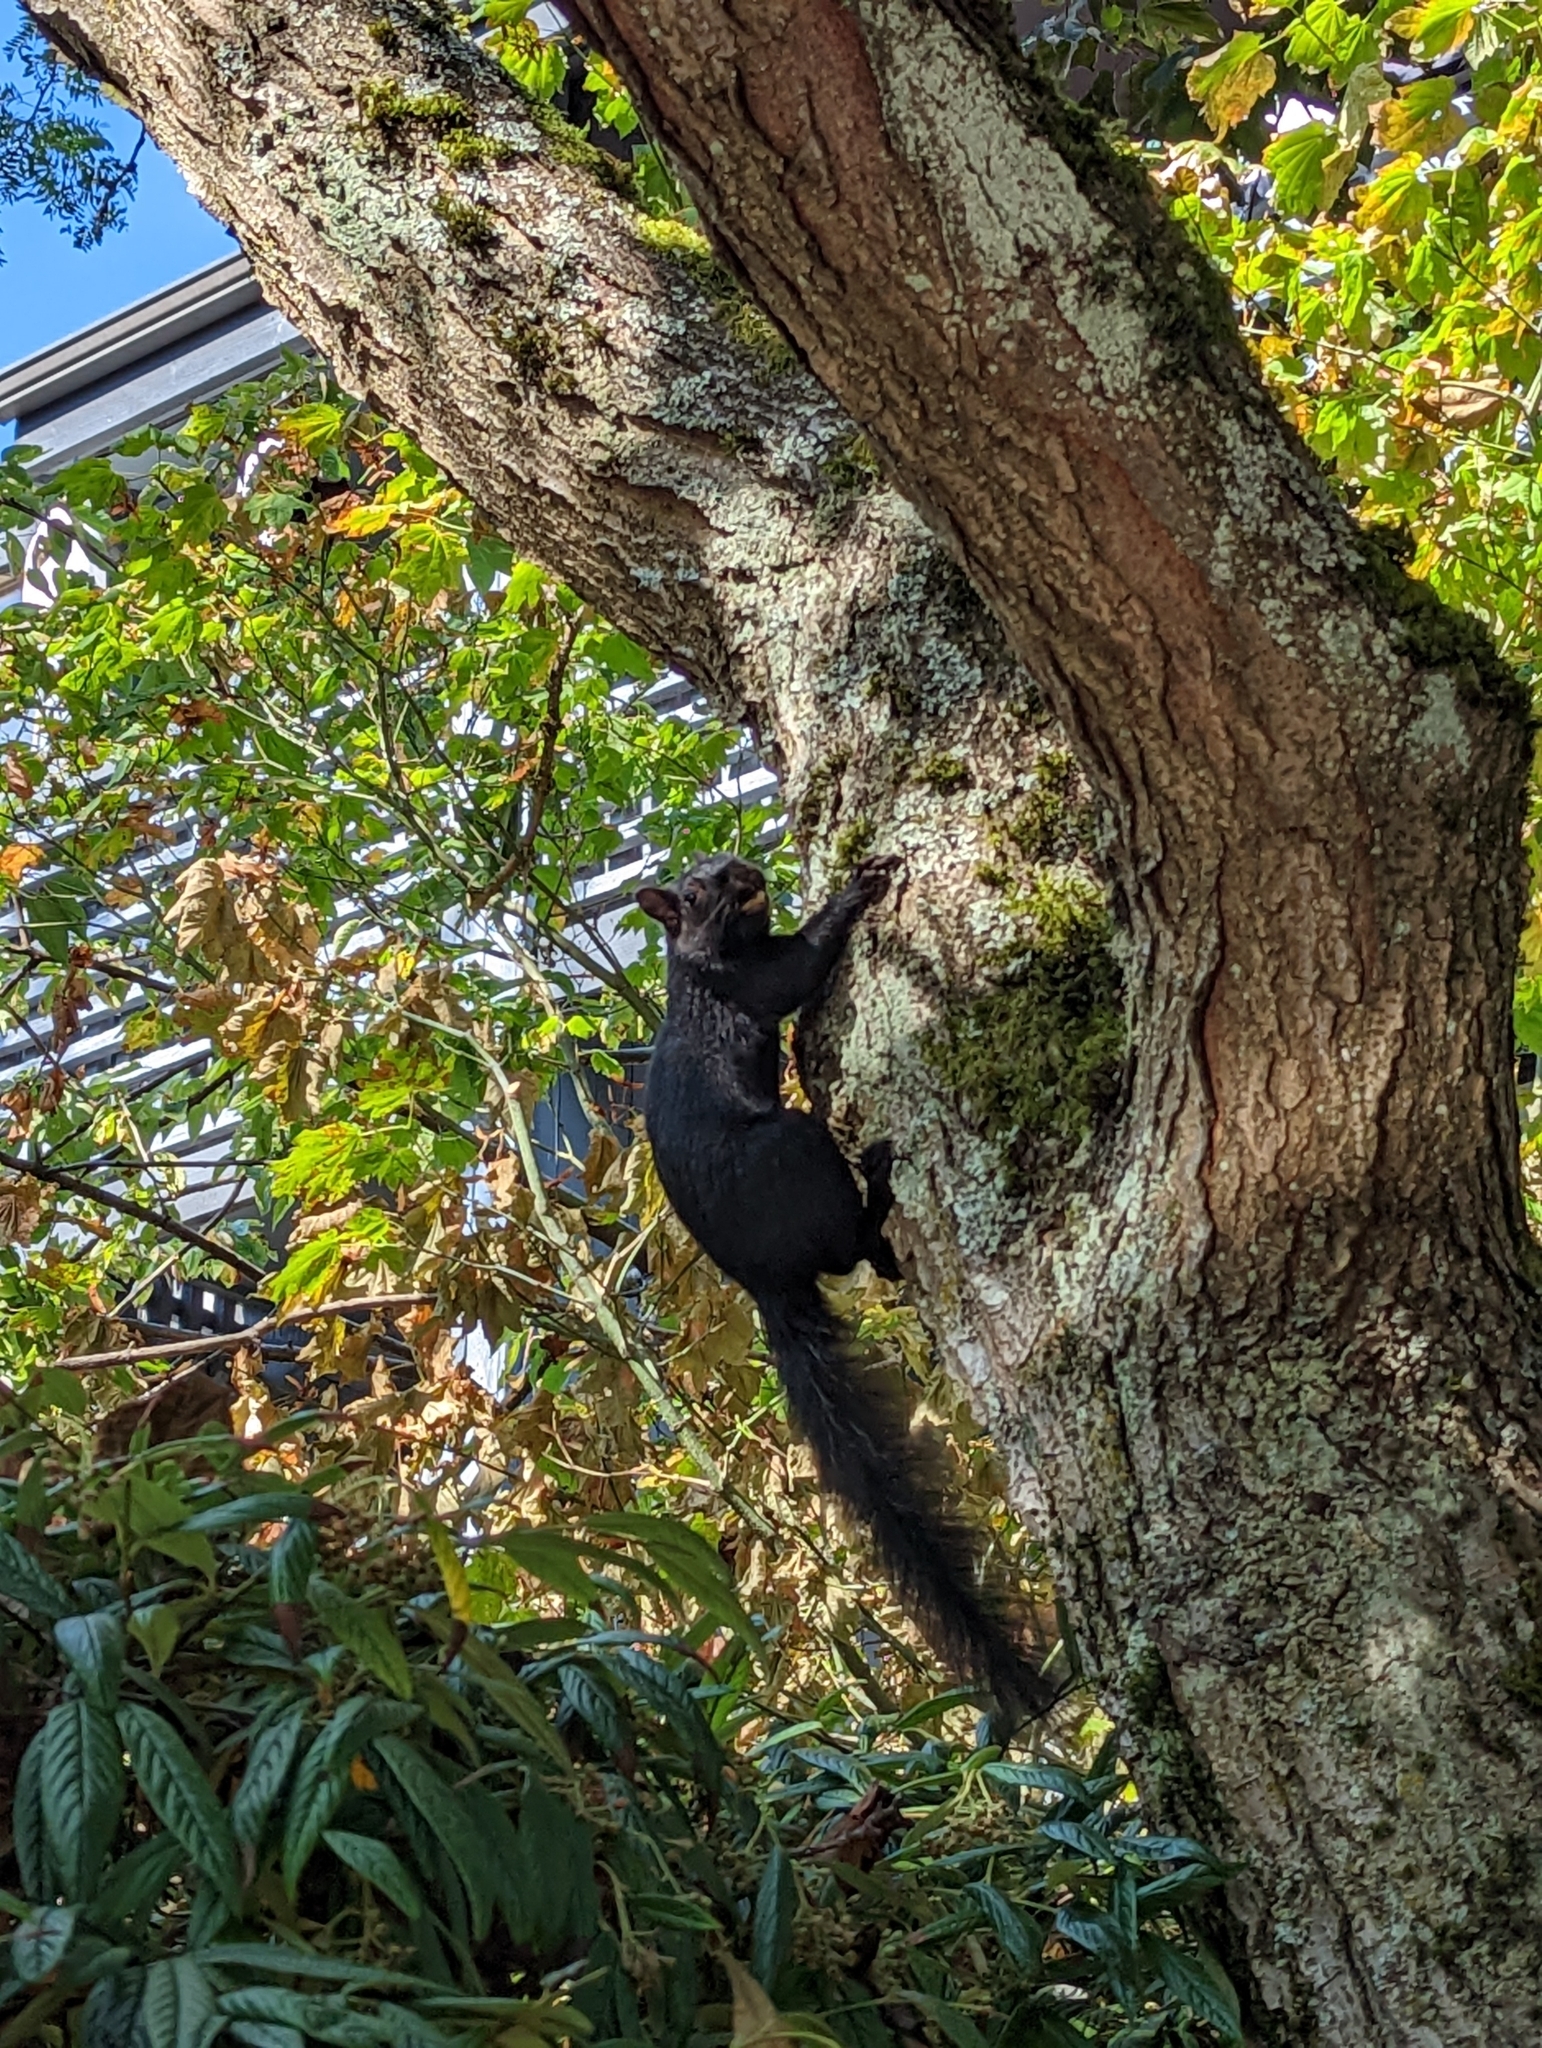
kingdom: Animalia
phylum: Chordata
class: Mammalia
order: Rodentia
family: Sciuridae
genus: Sciurus
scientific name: Sciurus carolinensis
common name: Eastern gray squirrel
